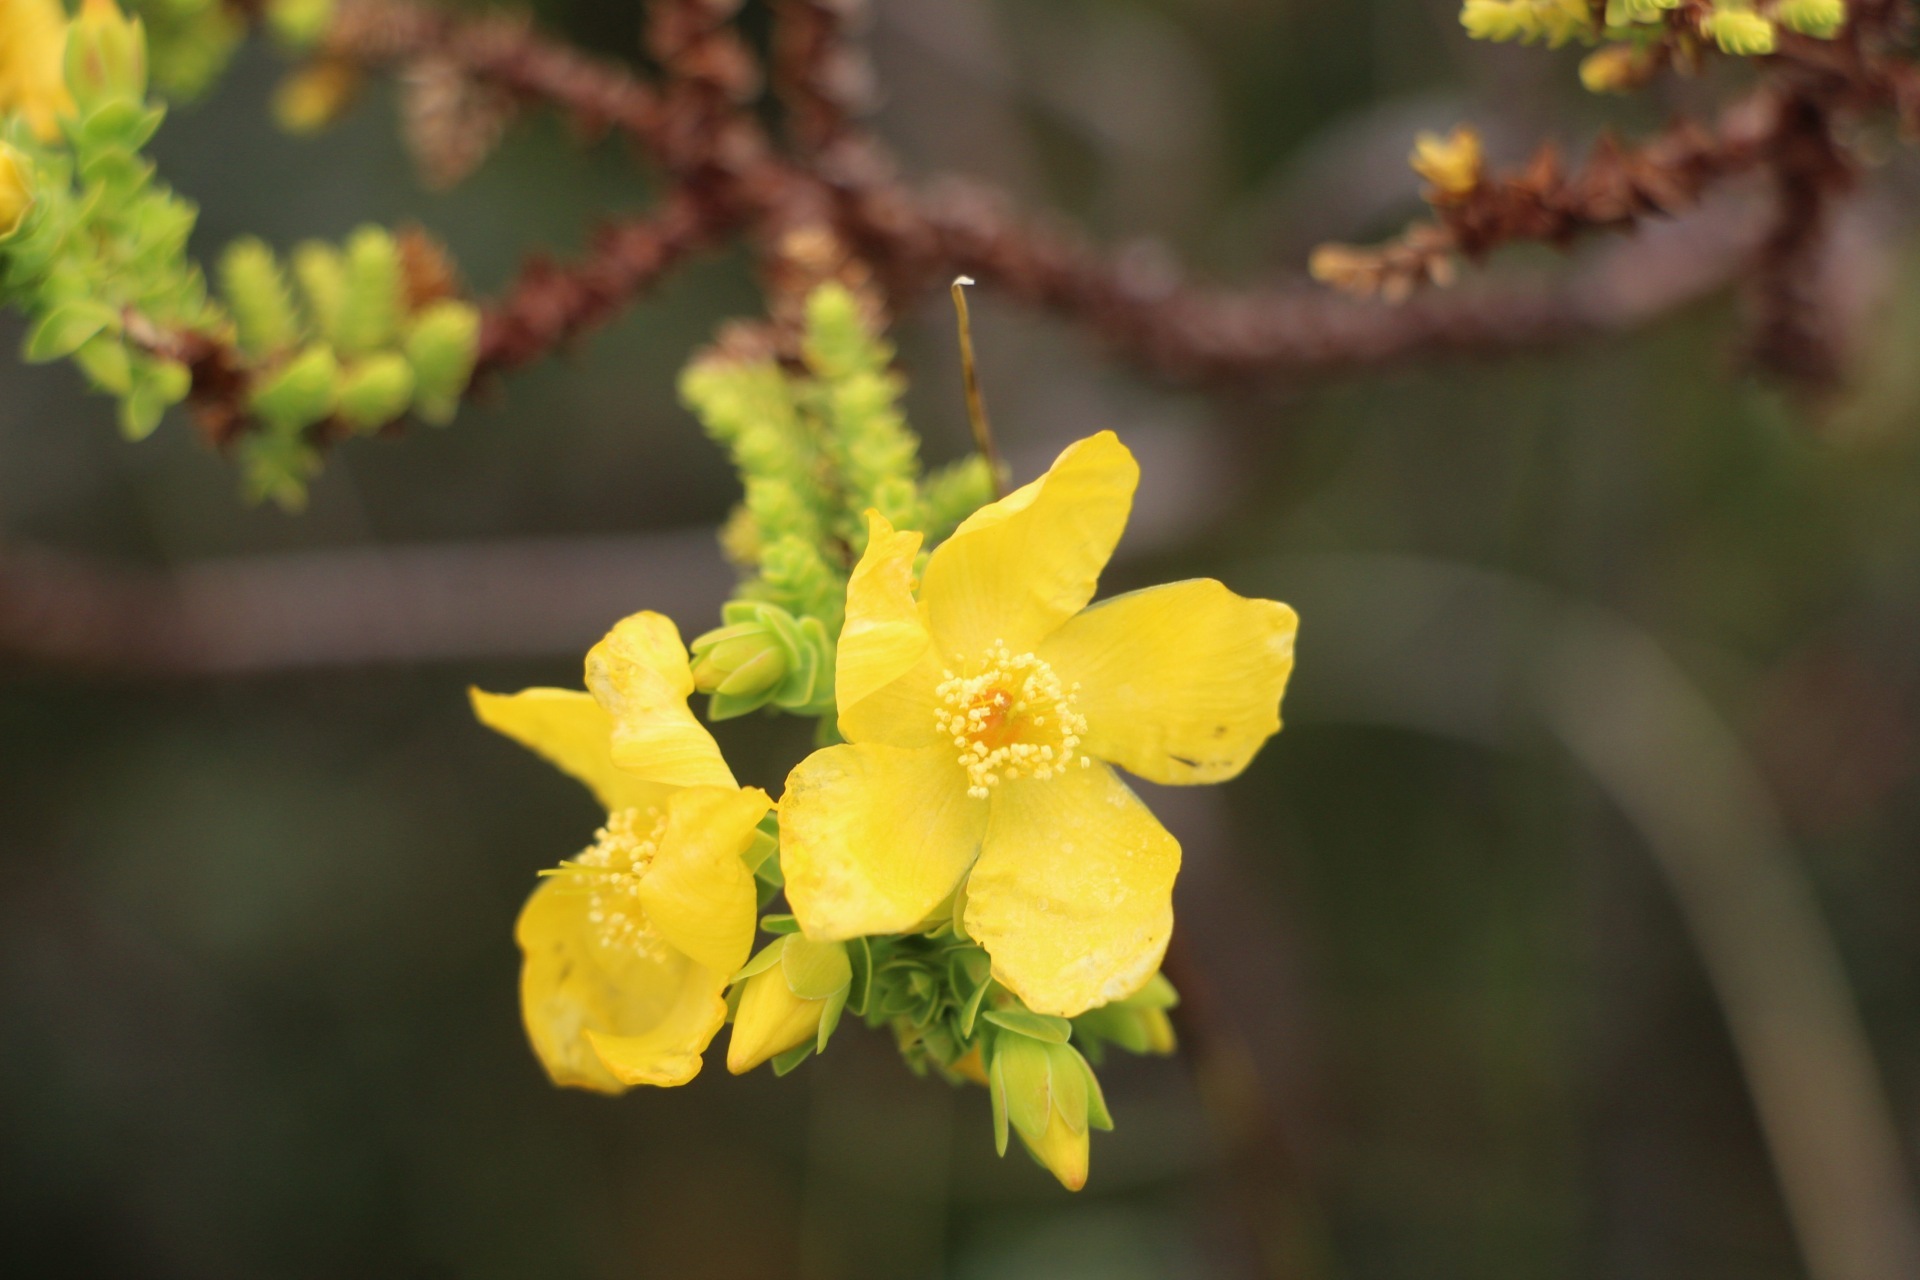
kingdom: Plantae
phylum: Tracheophyta
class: Magnoliopsida
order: Malpighiales
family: Hypericaceae
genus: Hypericum
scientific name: Hypericum goyanesii
